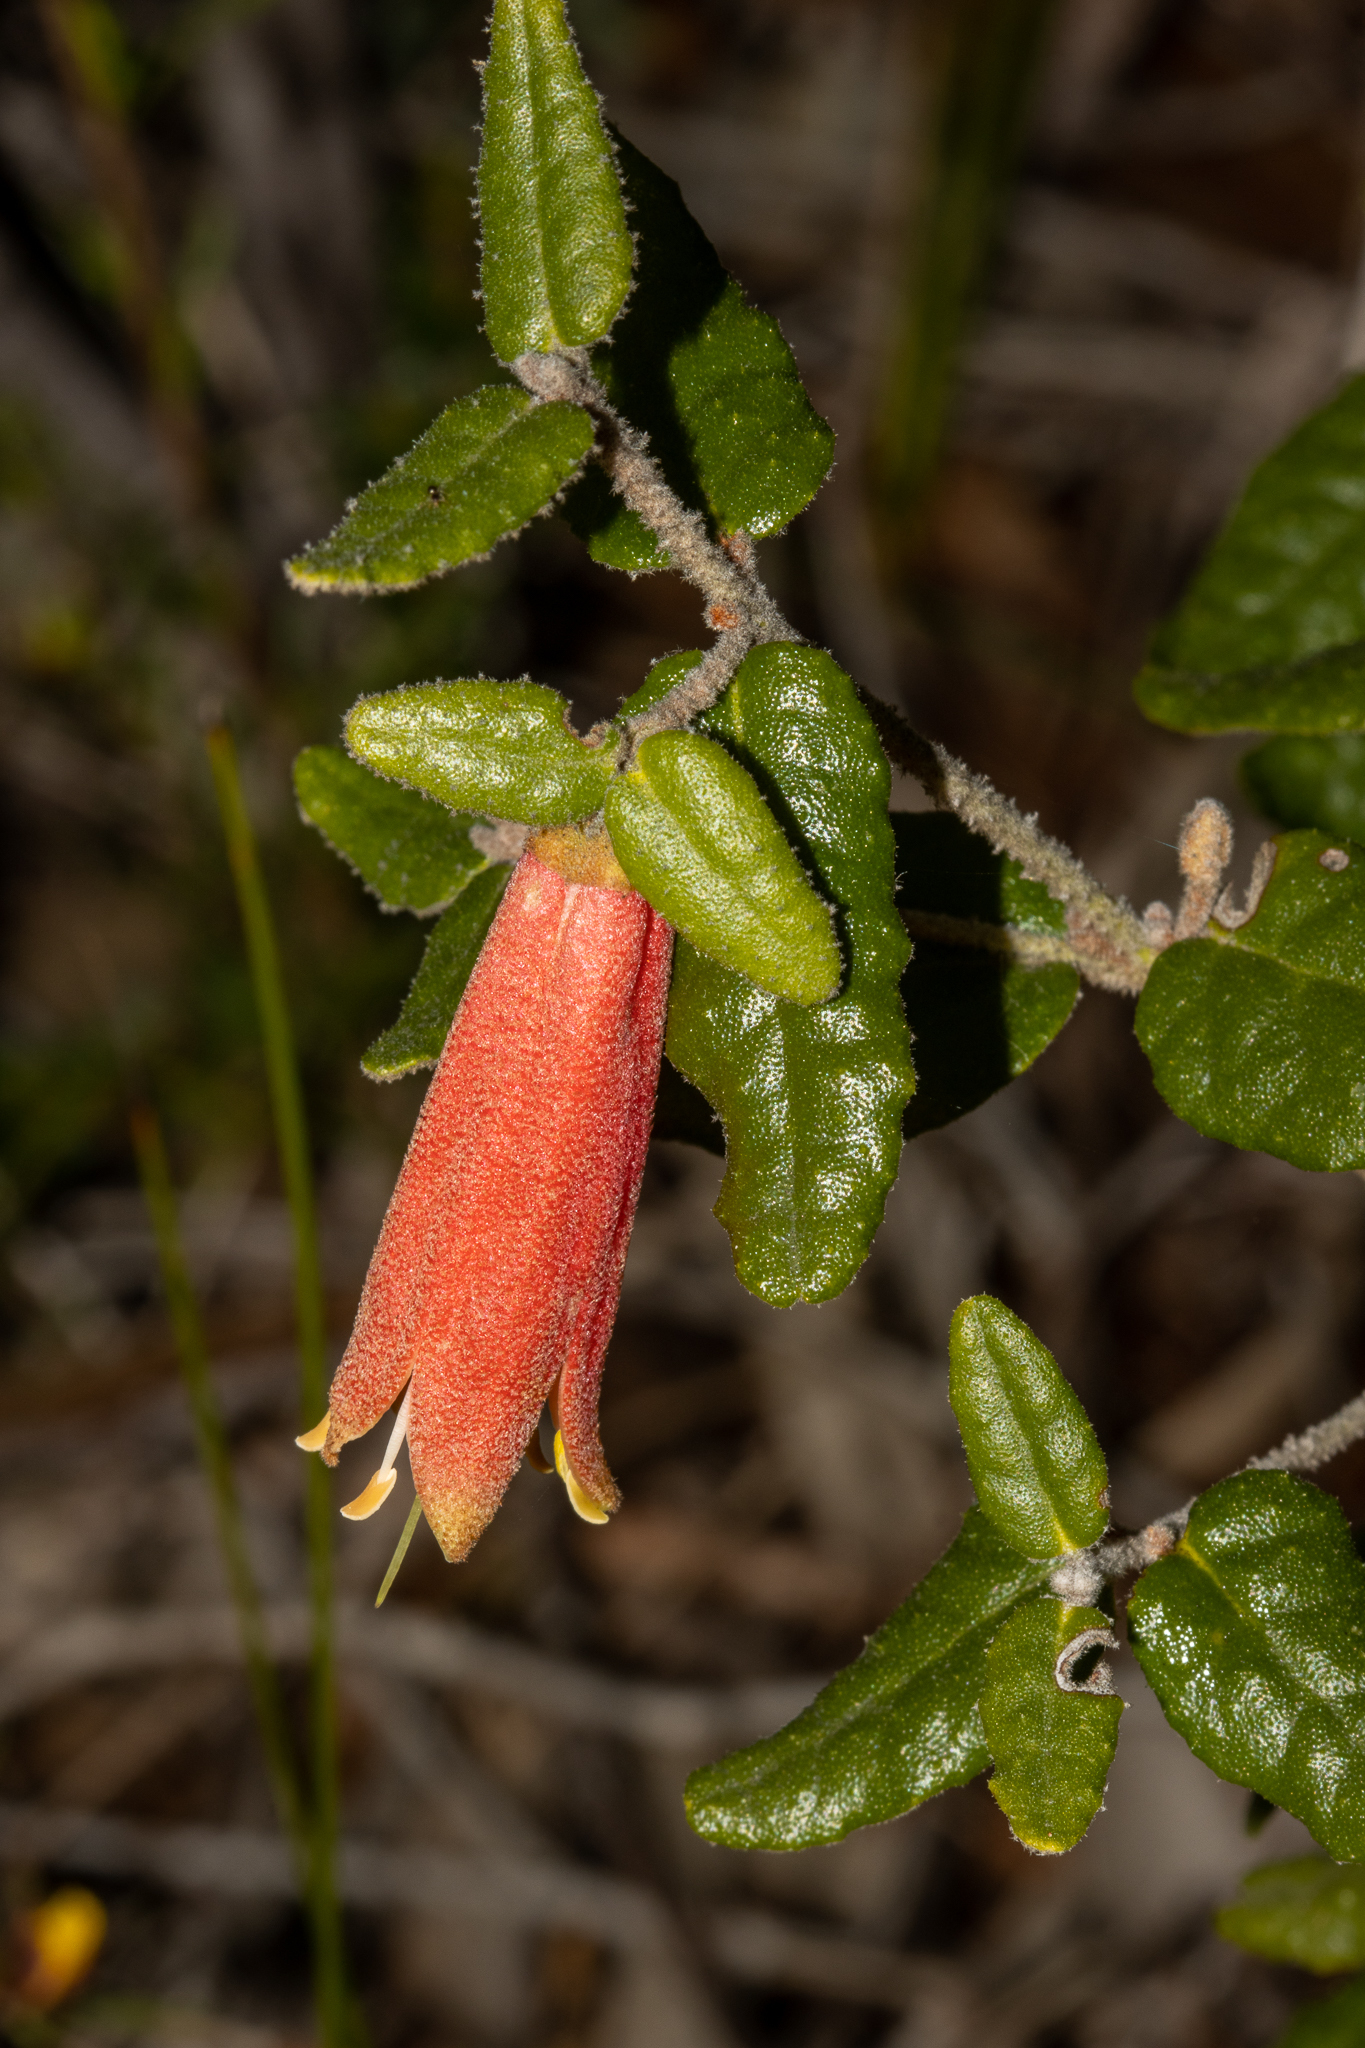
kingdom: Plantae
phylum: Tracheophyta
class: Magnoliopsida
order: Sapindales
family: Rutaceae
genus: Correa
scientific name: Correa reflexa
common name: Common correa
